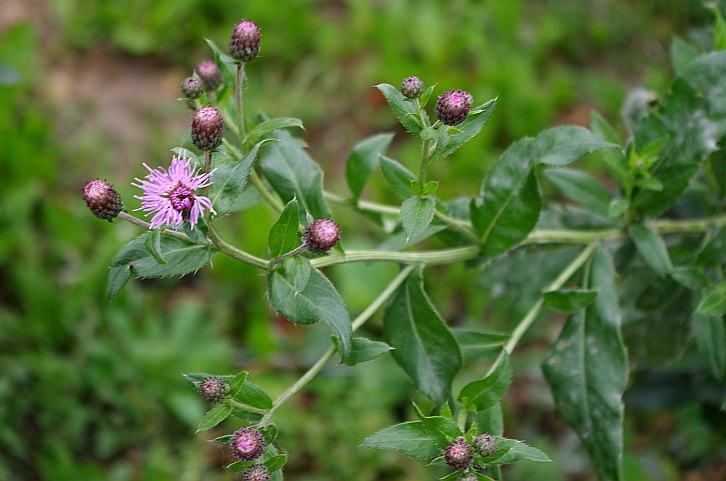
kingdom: Plantae
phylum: Tracheophyta
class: Magnoliopsida
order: Asterales
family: Asteraceae
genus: Cirsium
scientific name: Cirsium arvense
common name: Creeping thistle
